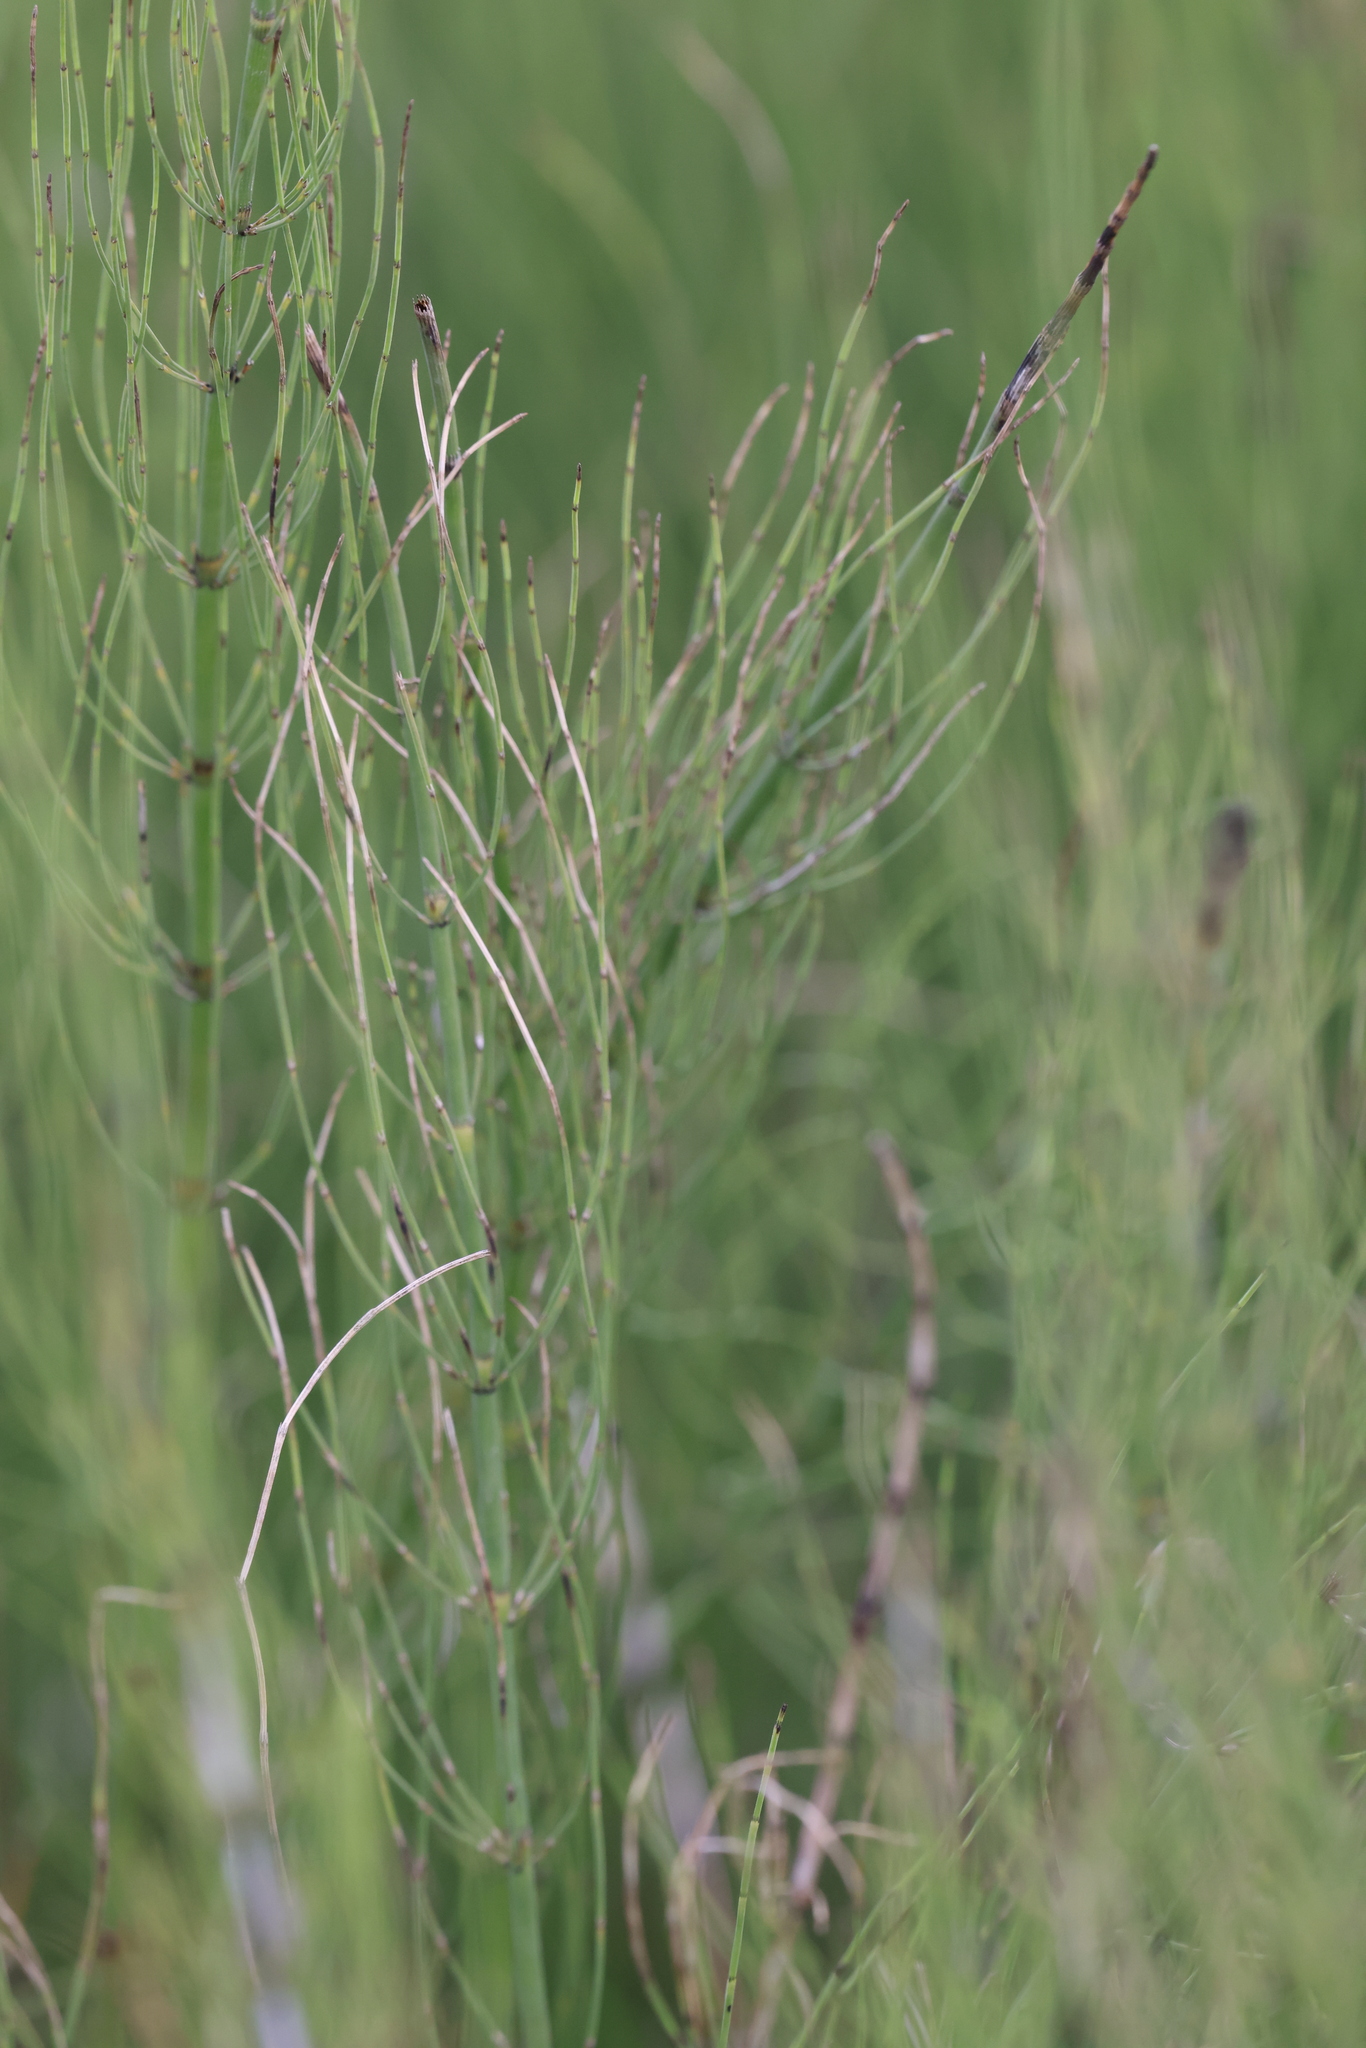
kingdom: Plantae
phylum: Tracheophyta
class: Polypodiopsida
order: Equisetales
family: Equisetaceae
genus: Equisetum
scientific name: Equisetum fluviatile
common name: Water horsetail
